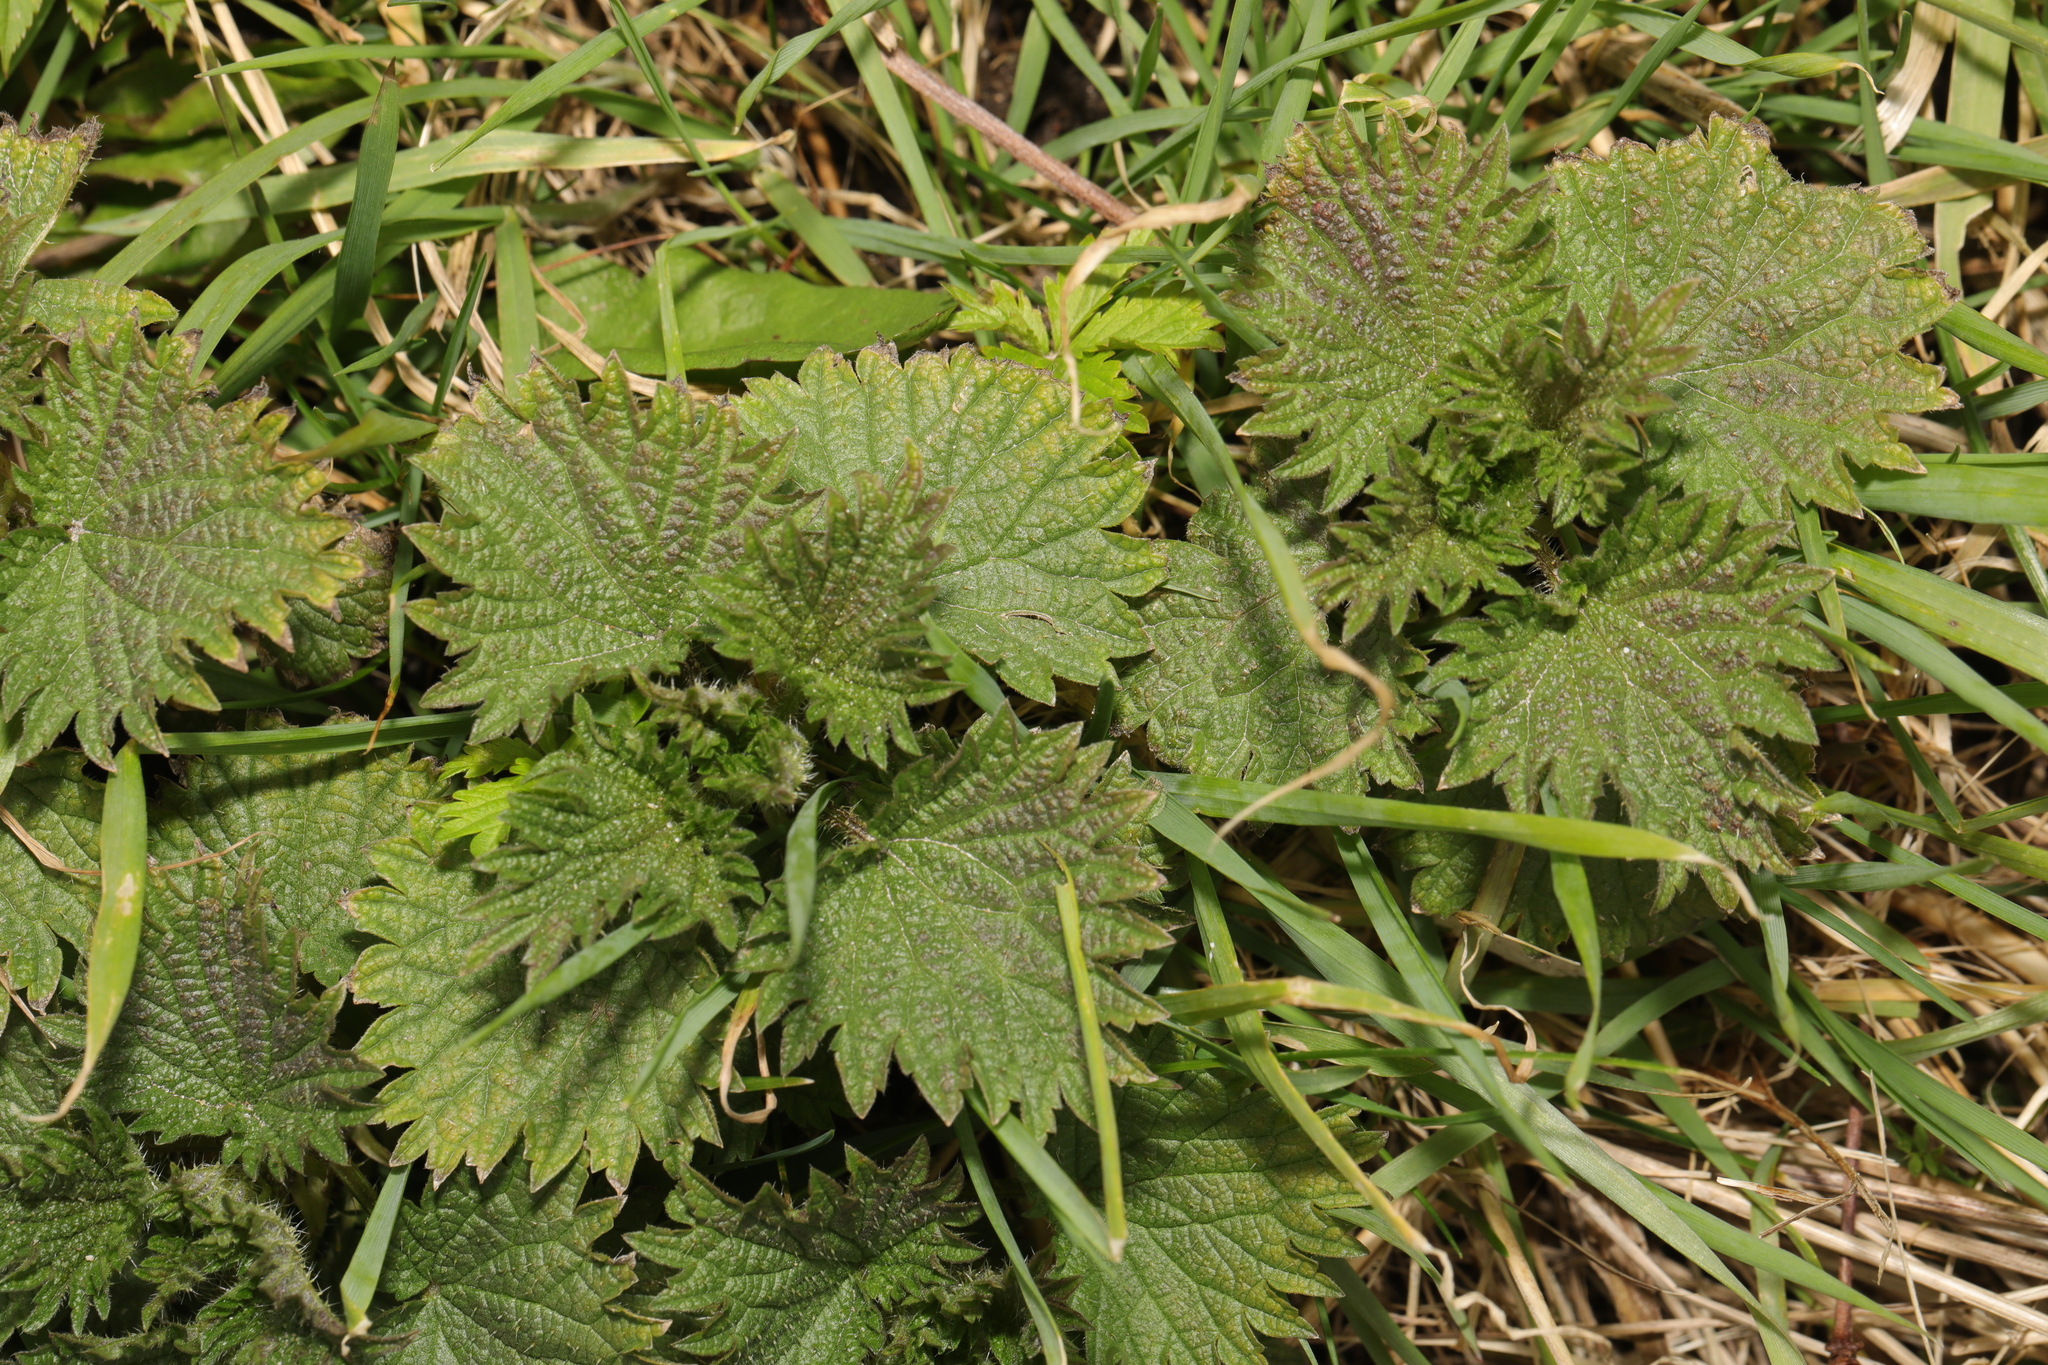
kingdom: Plantae
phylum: Tracheophyta
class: Magnoliopsida
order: Rosales
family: Urticaceae
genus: Urtica
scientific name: Urtica dioica
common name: Common nettle
